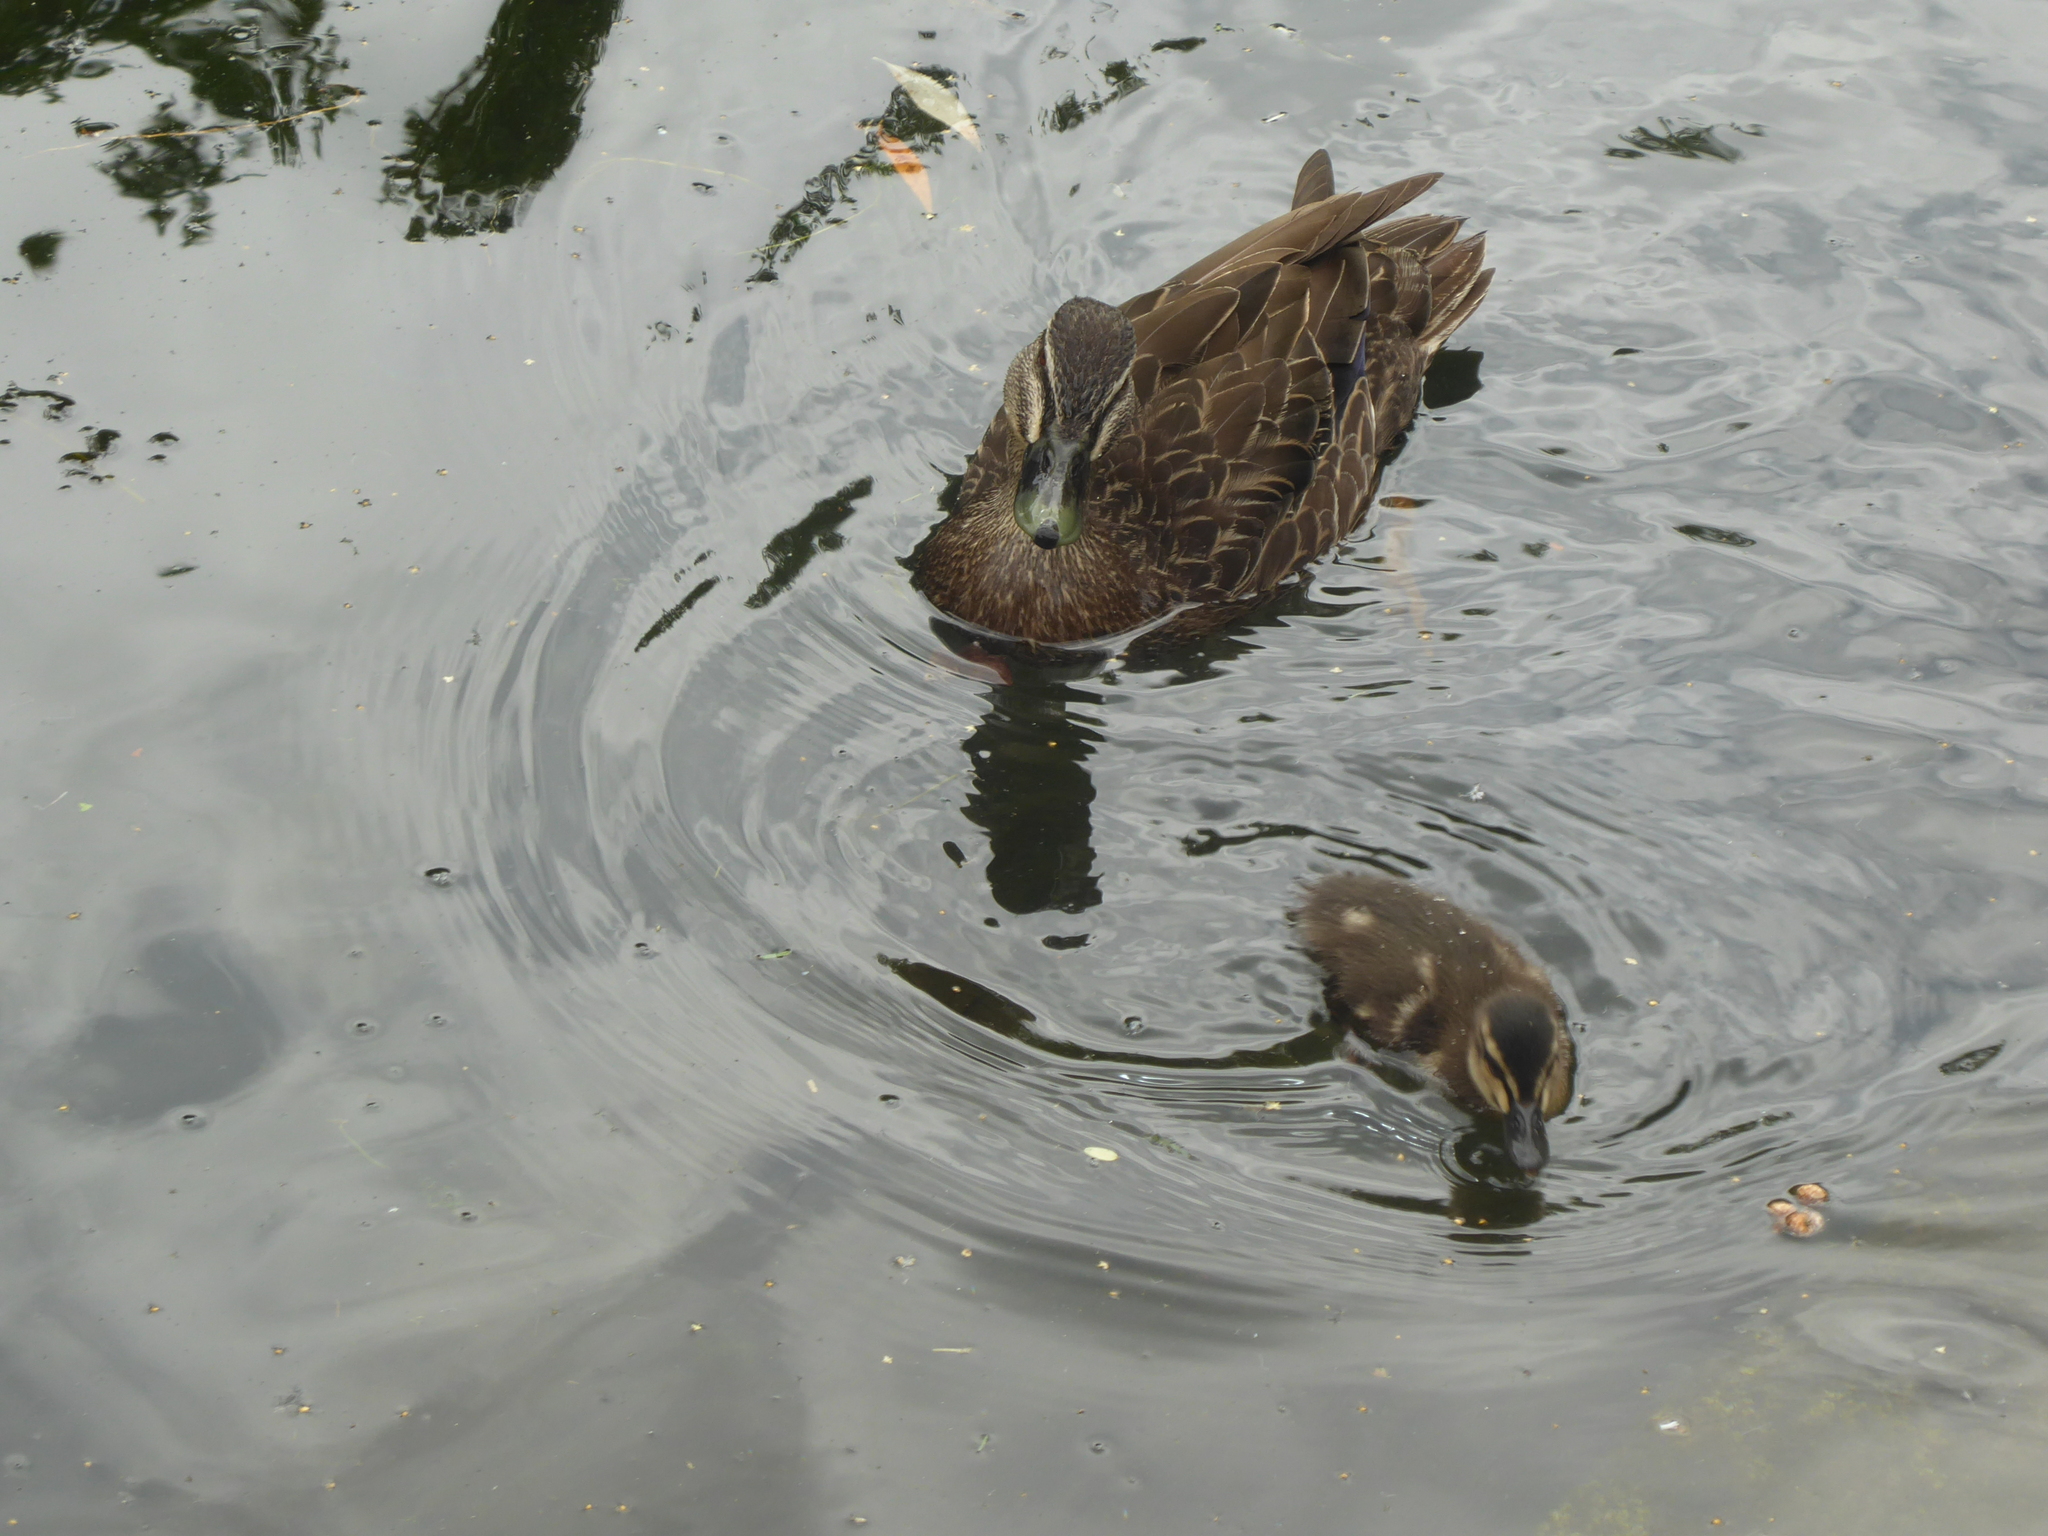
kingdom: Animalia
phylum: Chordata
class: Aves
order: Anseriformes
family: Anatidae
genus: Anas
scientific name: Anas
